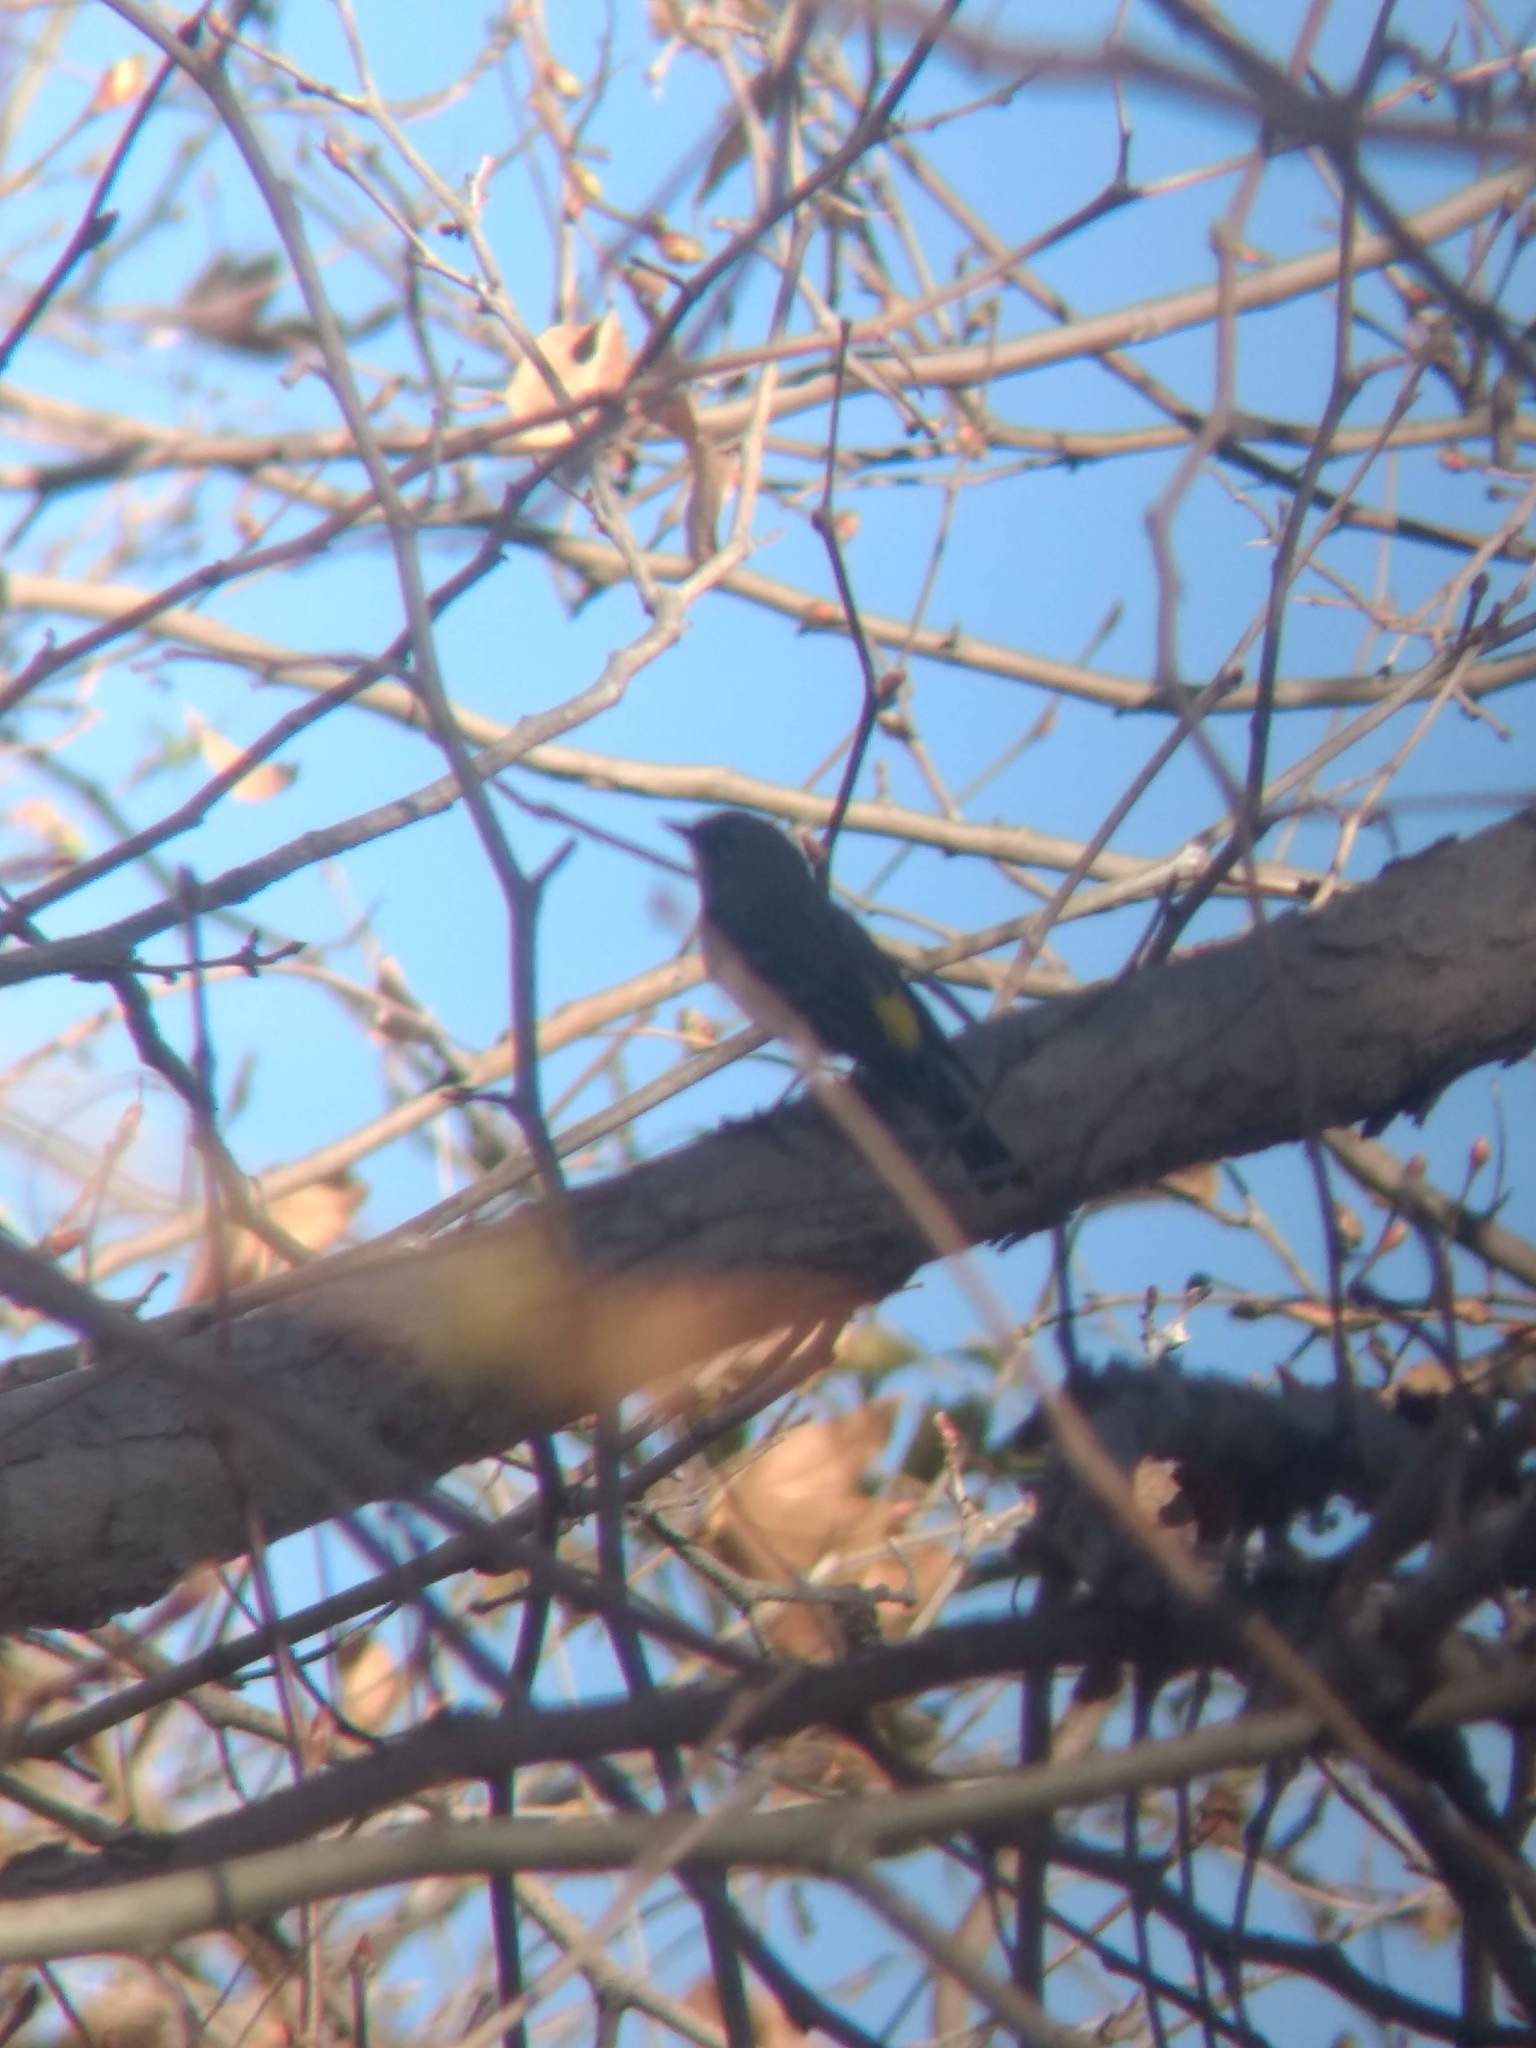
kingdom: Animalia
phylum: Chordata
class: Aves
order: Passeriformes
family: Parulidae
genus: Setophaga
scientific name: Setophaga coronata
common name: Myrtle warbler
